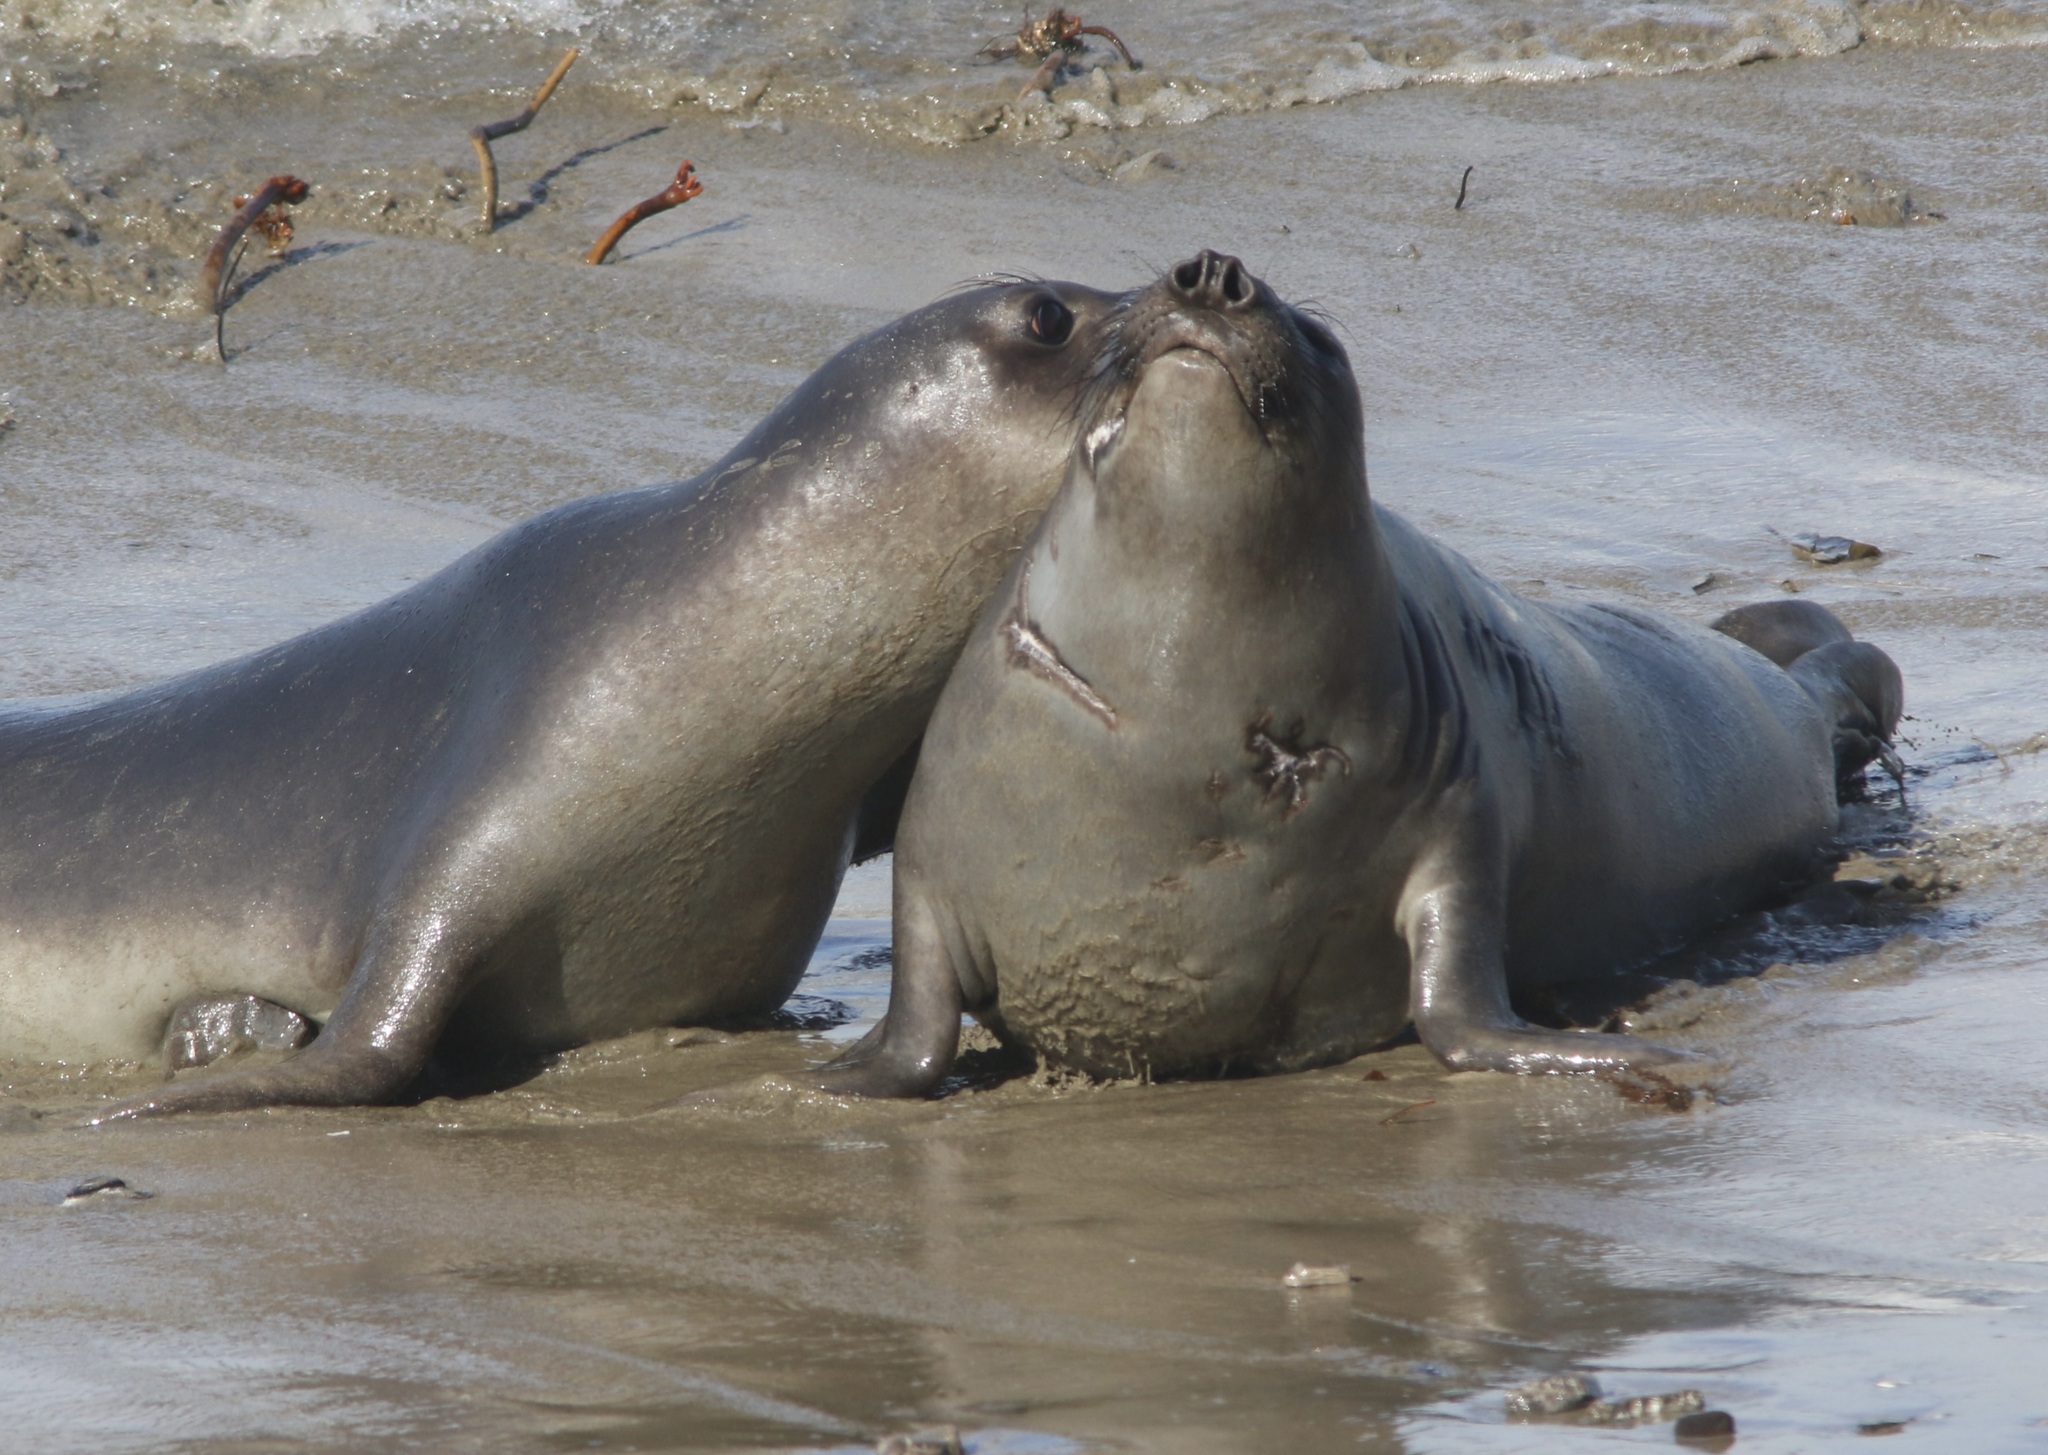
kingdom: Animalia
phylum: Chordata
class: Mammalia
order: Carnivora
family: Phocidae
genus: Mirounga
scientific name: Mirounga angustirostris
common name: Northern elephant seal
